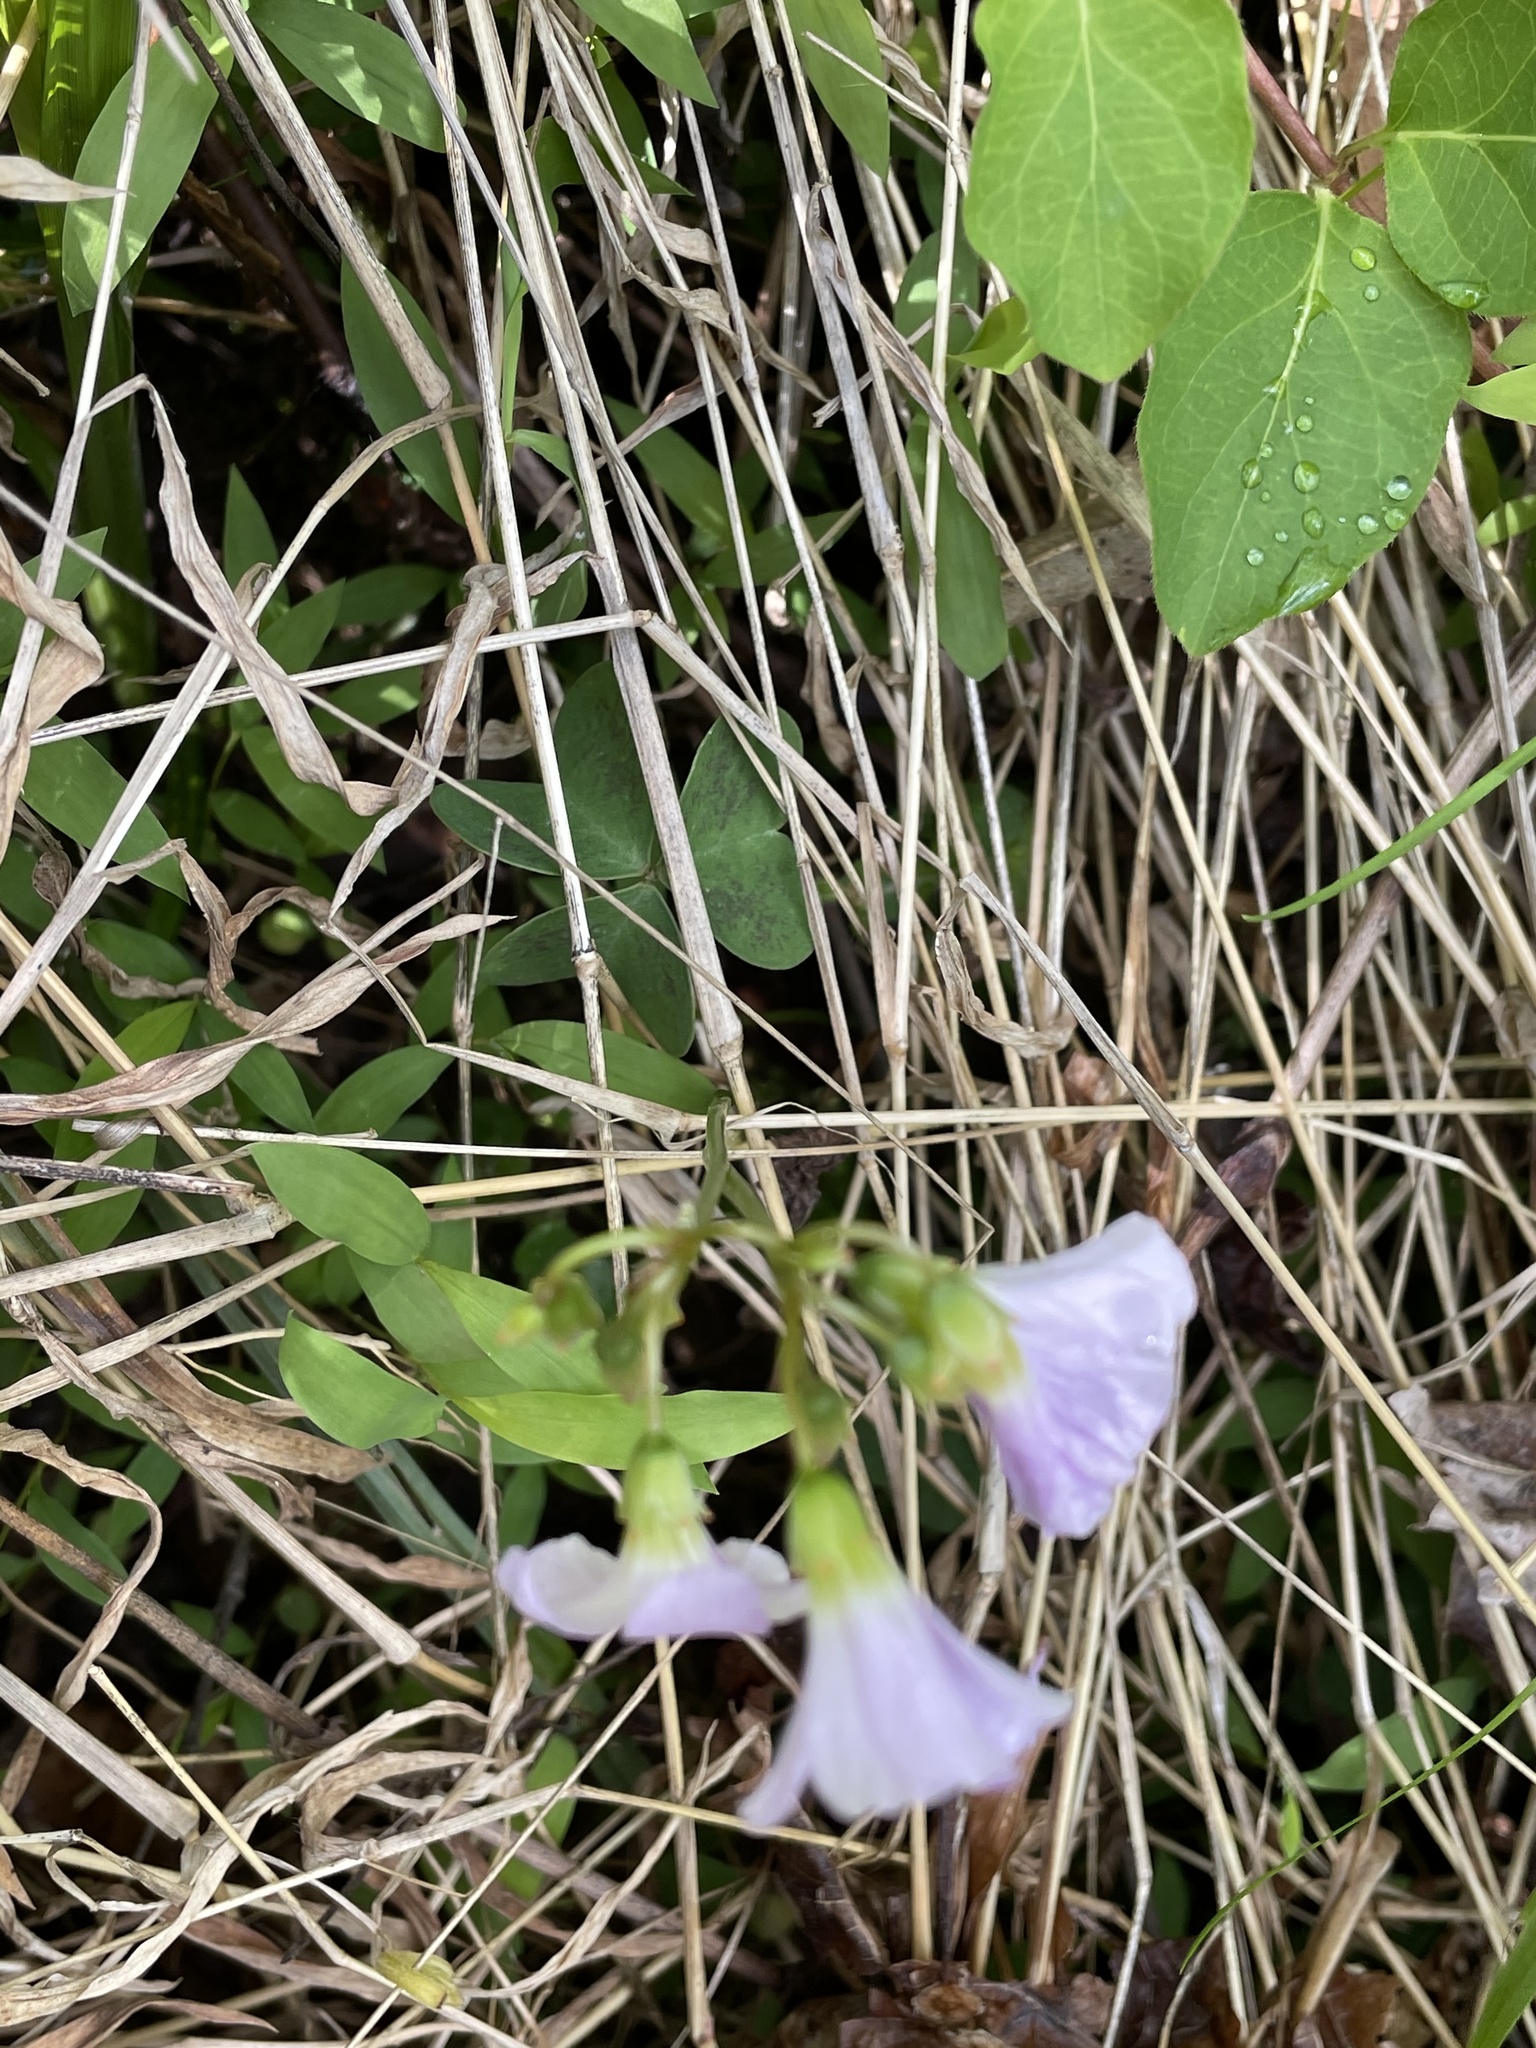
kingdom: Plantae
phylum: Tracheophyta
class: Magnoliopsida
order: Oxalidales
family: Oxalidaceae
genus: Oxalis
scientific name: Oxalis violacea
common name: Violet wood-sorrel
